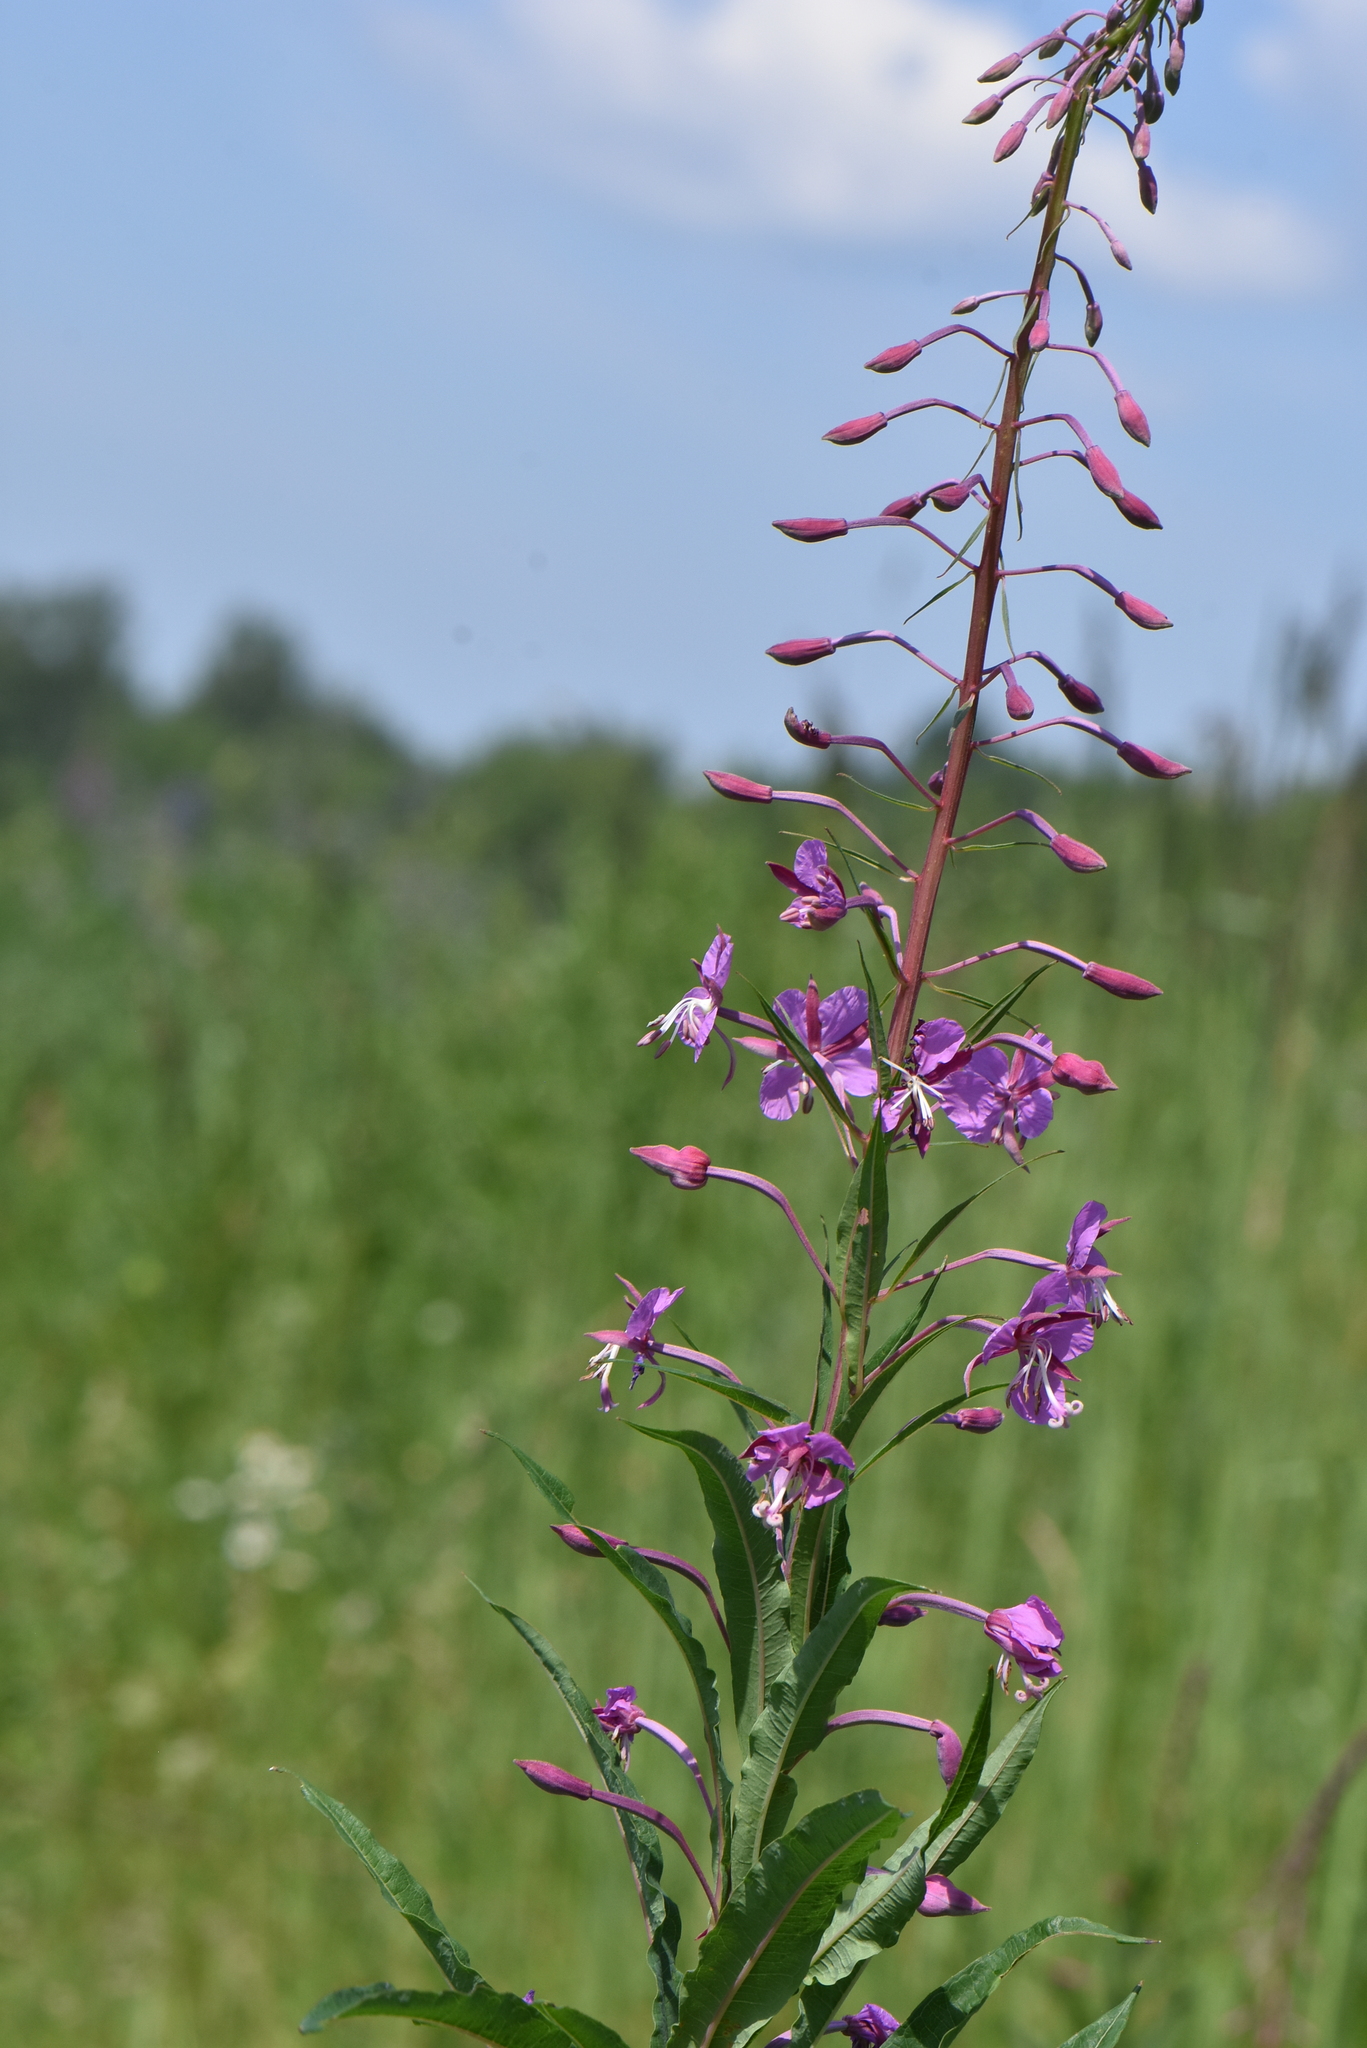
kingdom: Plantae
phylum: Tracheophyta
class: Magnoliopsida
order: Myrtales
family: Onagraceae
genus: Chamaenerion
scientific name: Chamaenerion angustifolium
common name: Fireweed
